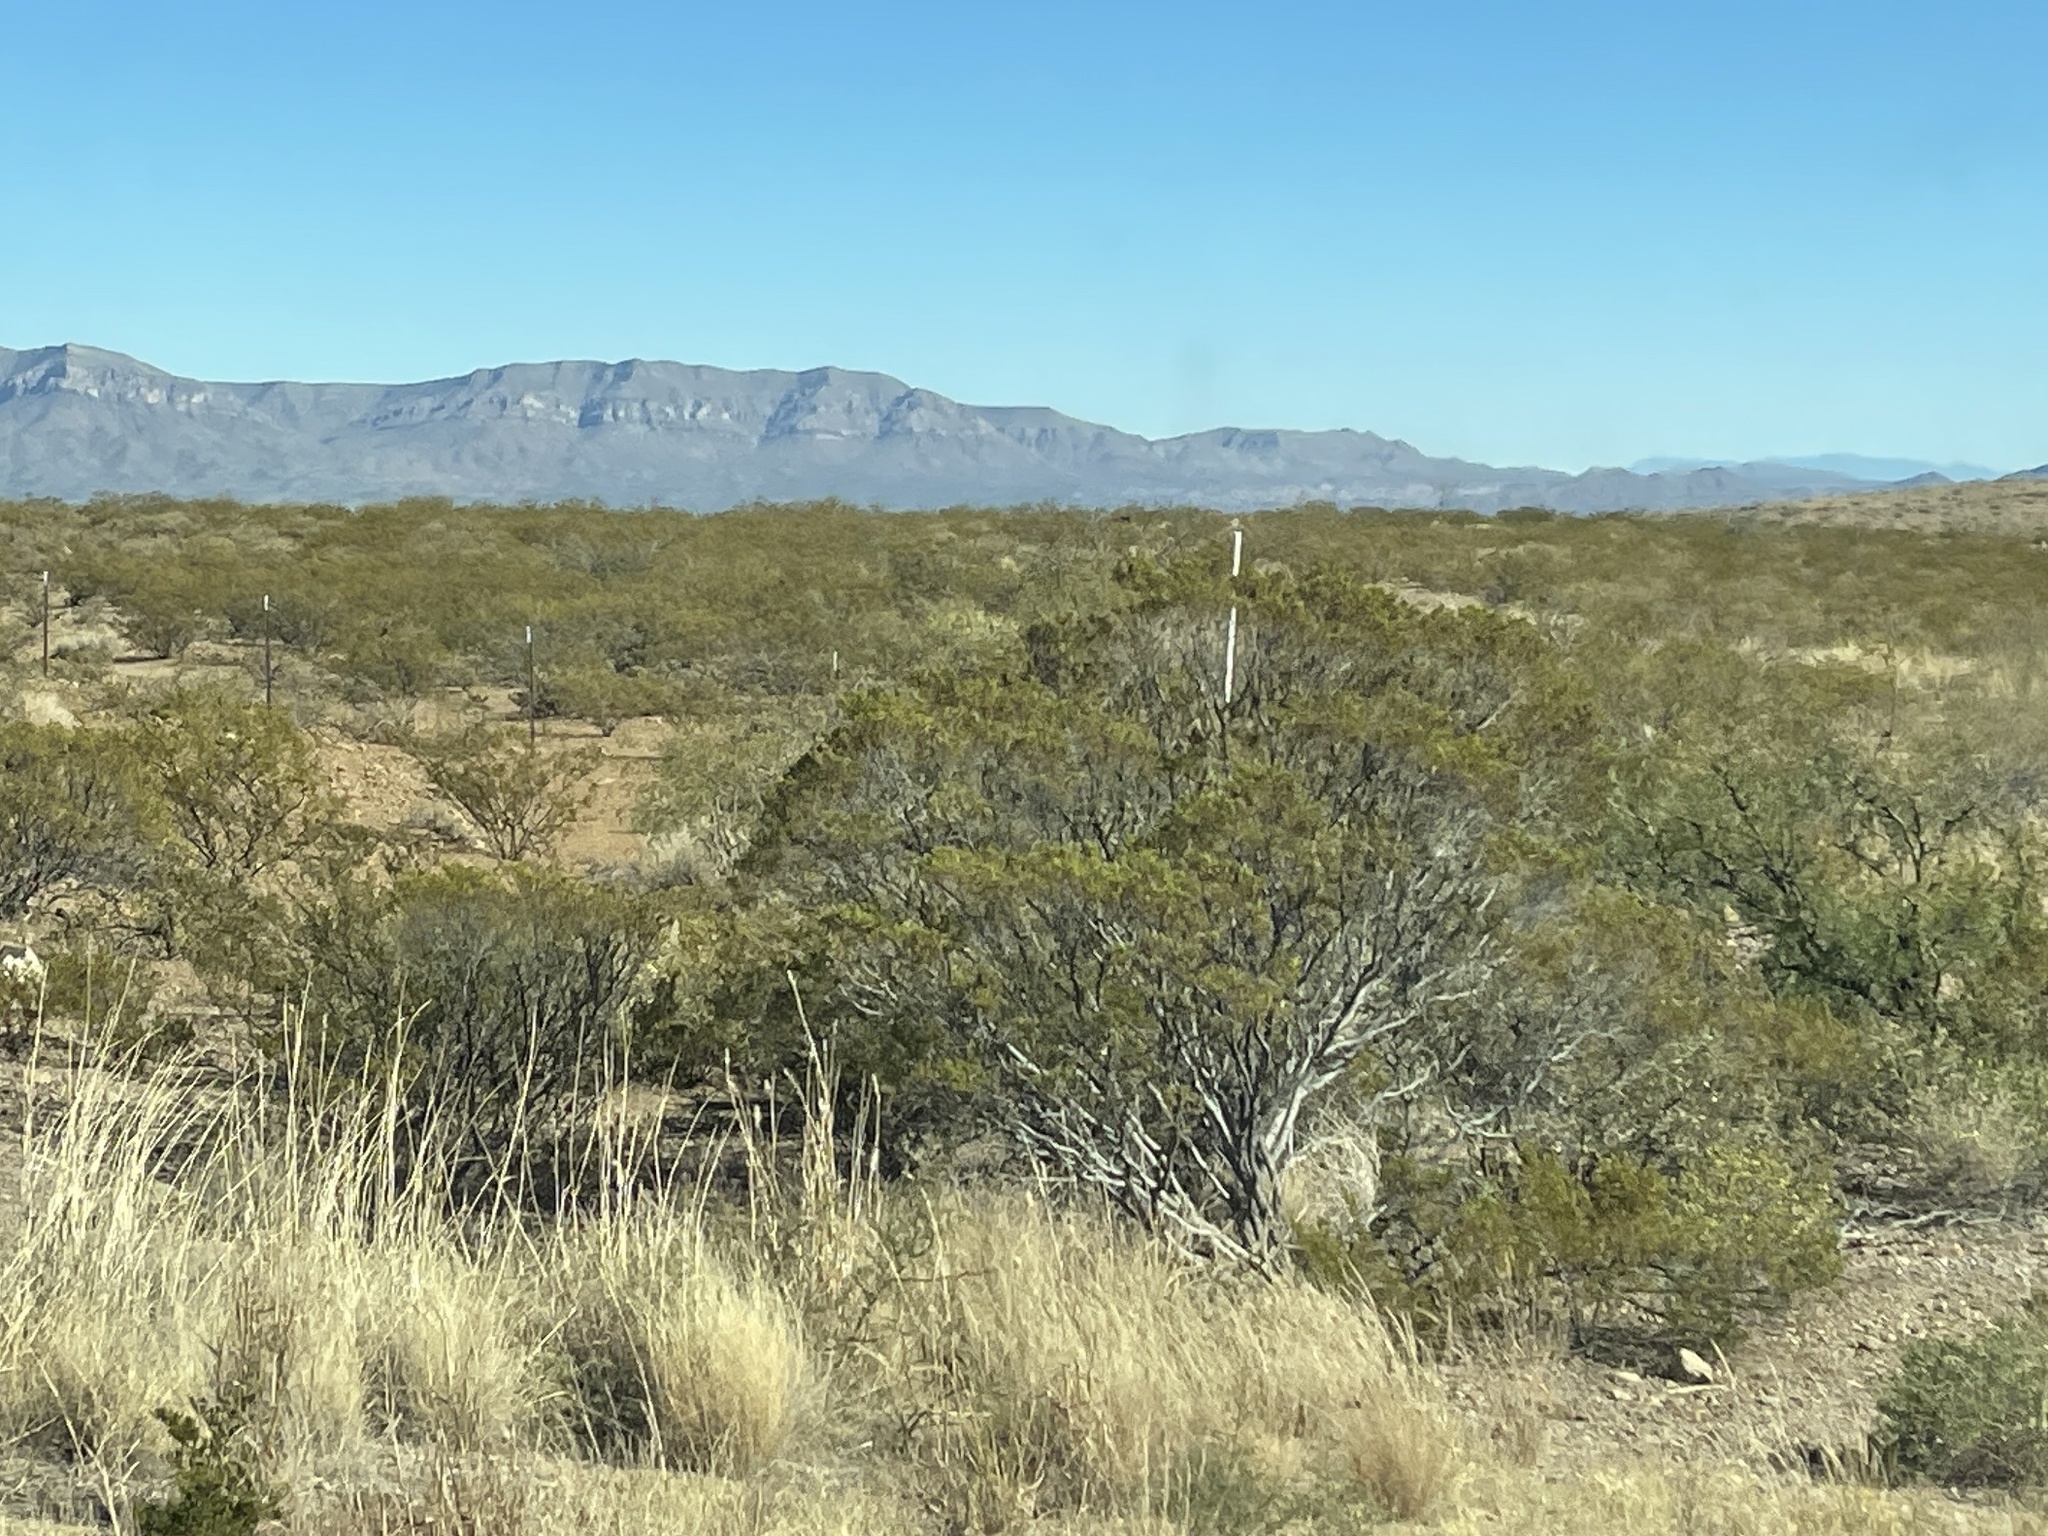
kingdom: Plantae
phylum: Tracheophyta
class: Magnoliopsida
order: Zygophyllales
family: Zygophyllaceae
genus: Larrea
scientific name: Larrea tridentata
